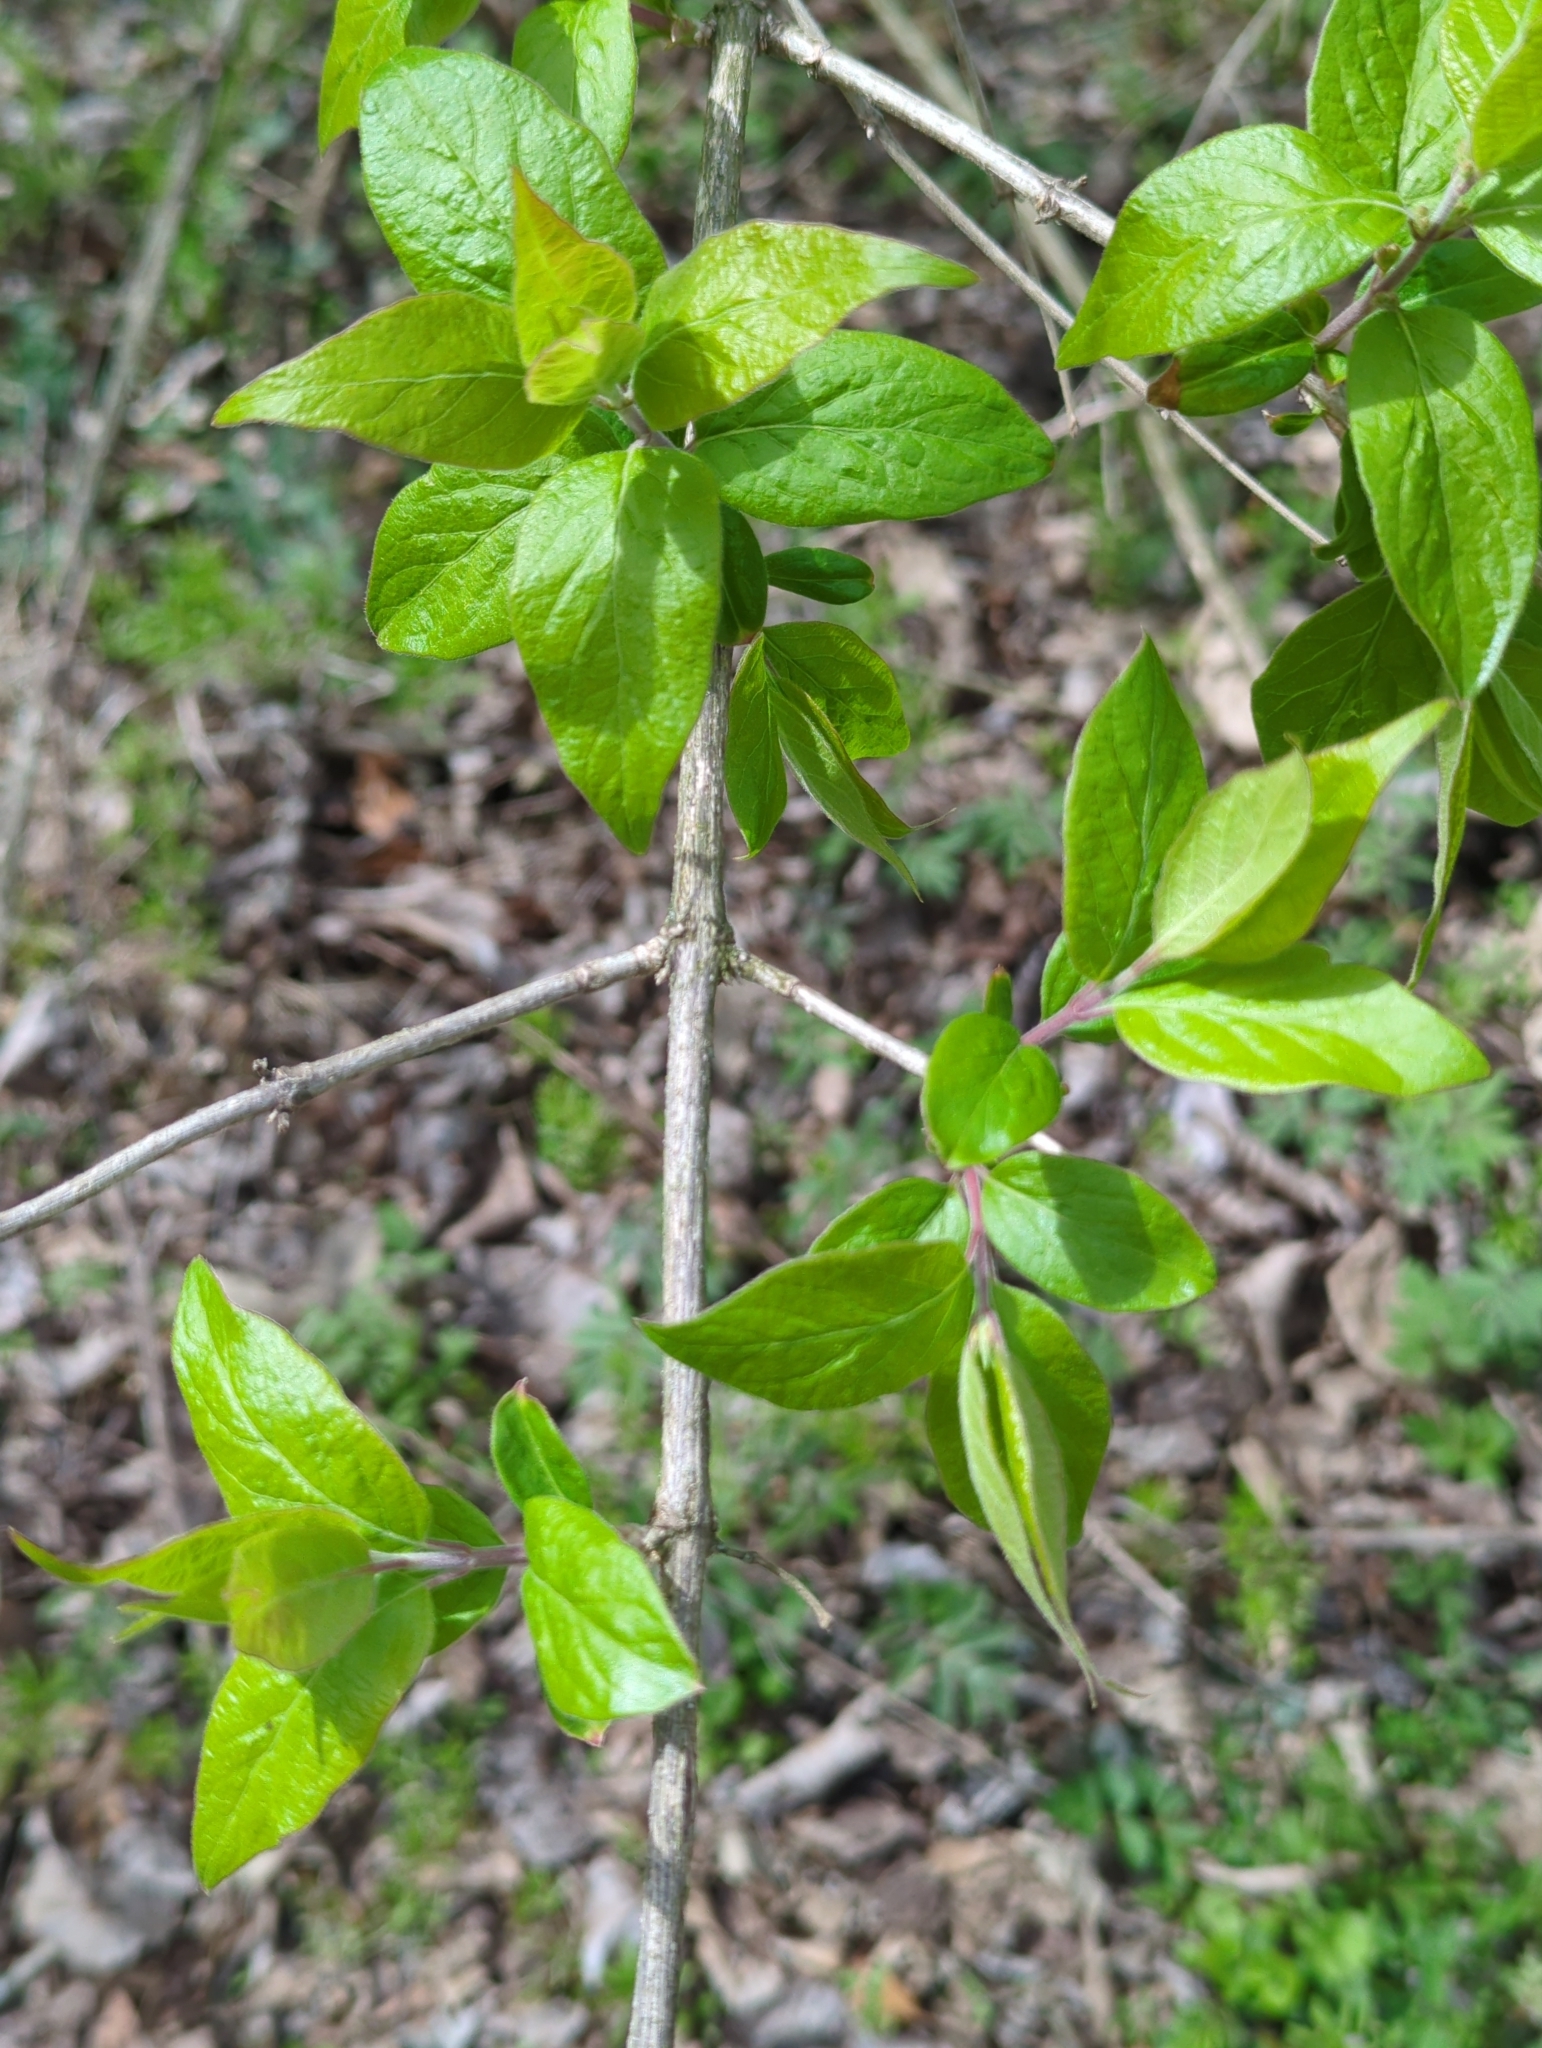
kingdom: Plantae
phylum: Tracheophyta
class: Magnoliopsida
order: Dipsacales
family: Caprifoliaceae
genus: Lonicera
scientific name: Lonicera maackii
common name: Amur honeysuckle
